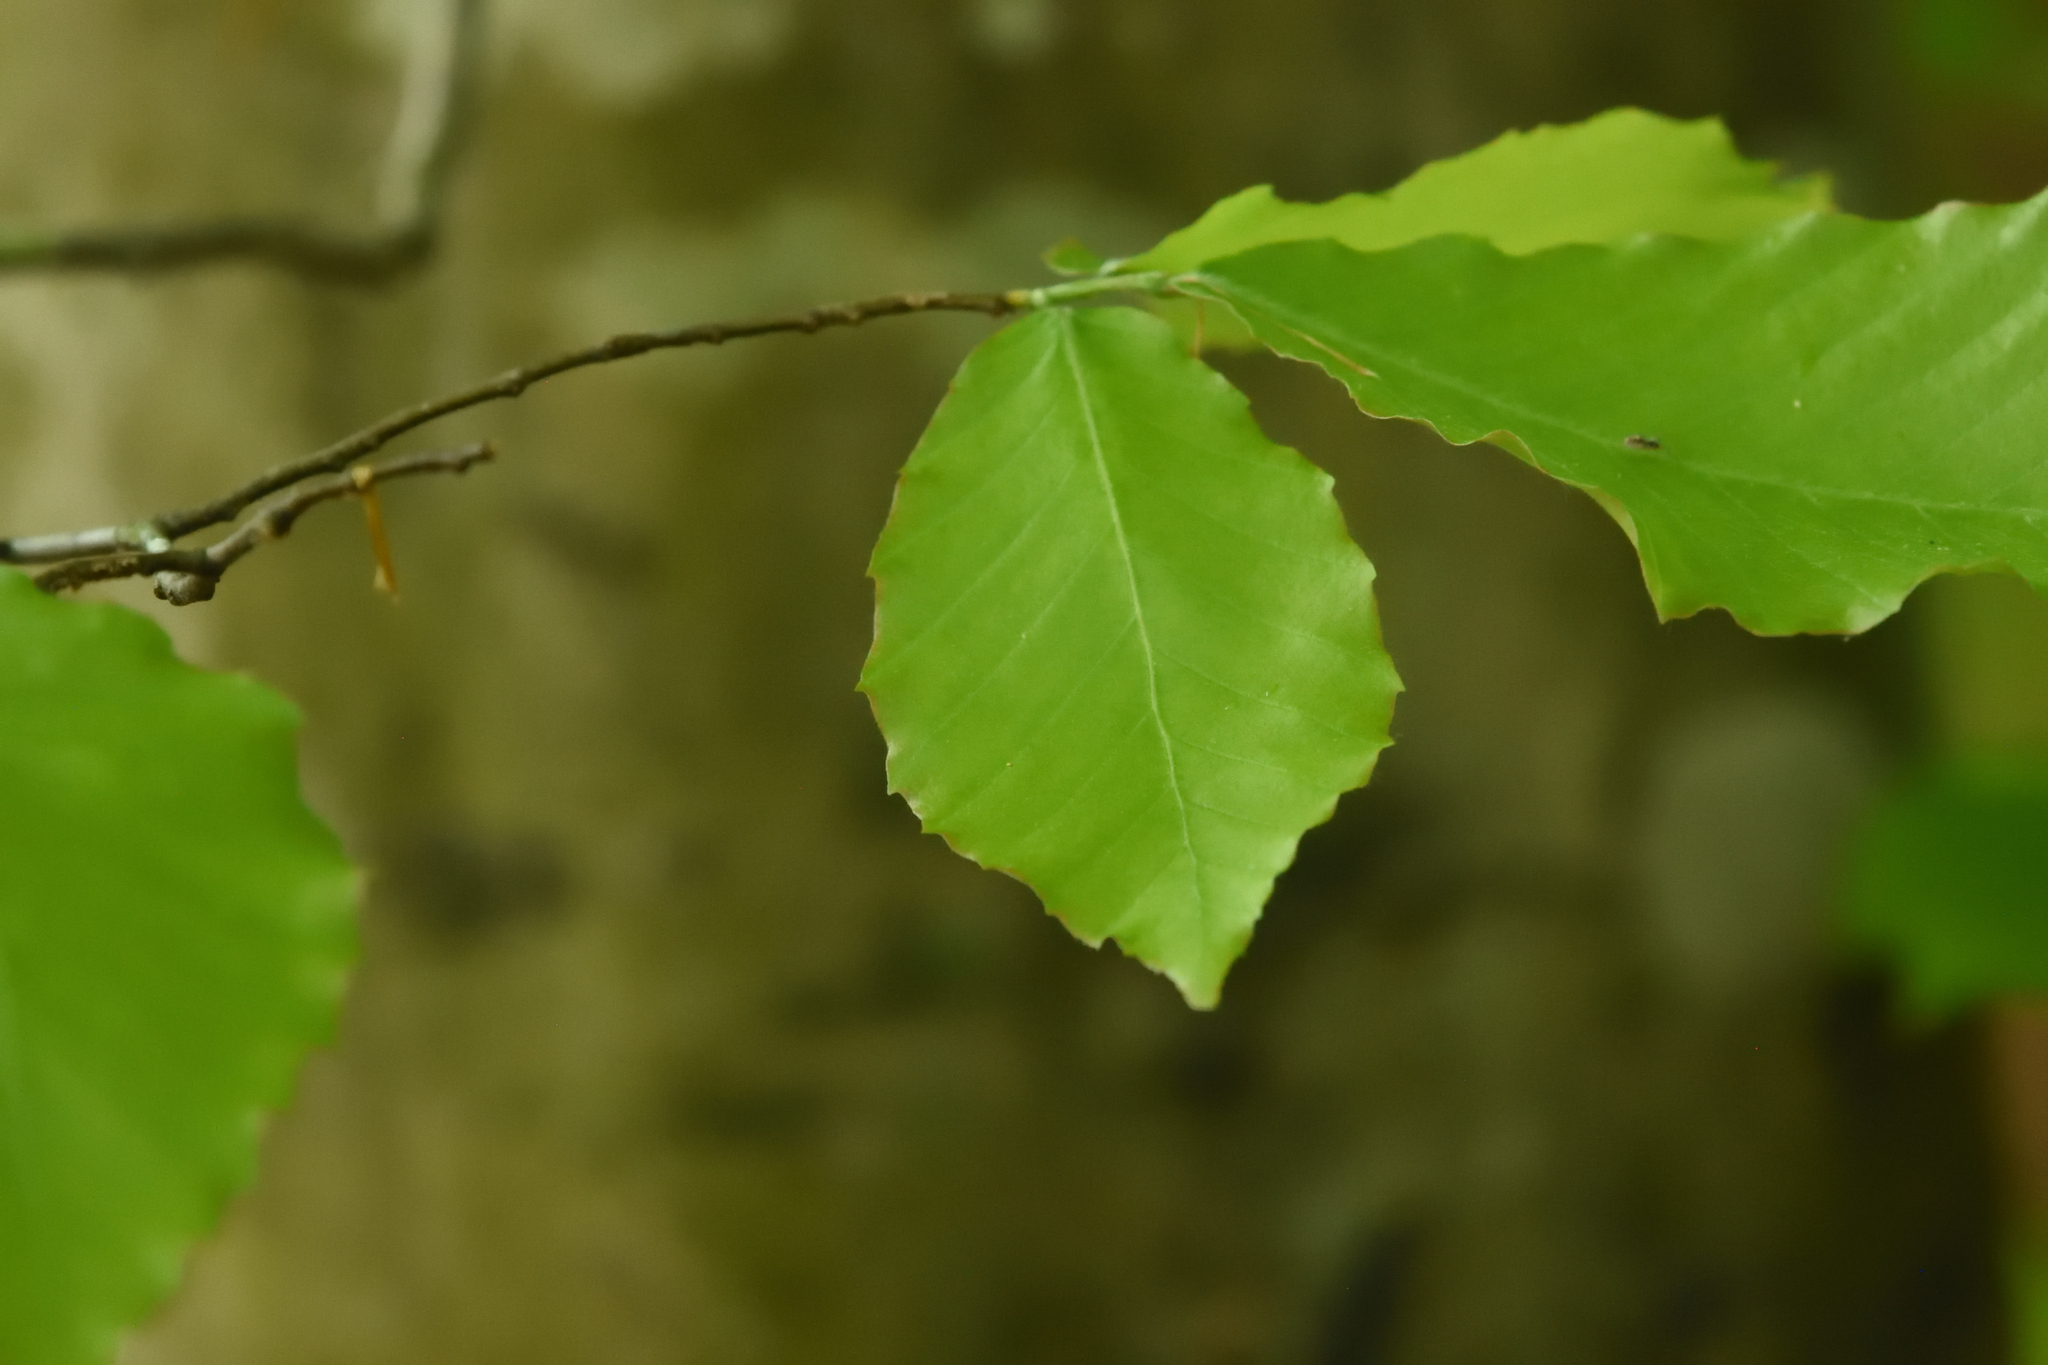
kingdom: Plantae
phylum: Tracheophyta
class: Magnoliopsida
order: Fagales
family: Fagaceae
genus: Fagus
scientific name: Fagus grandifolia
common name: American beech
